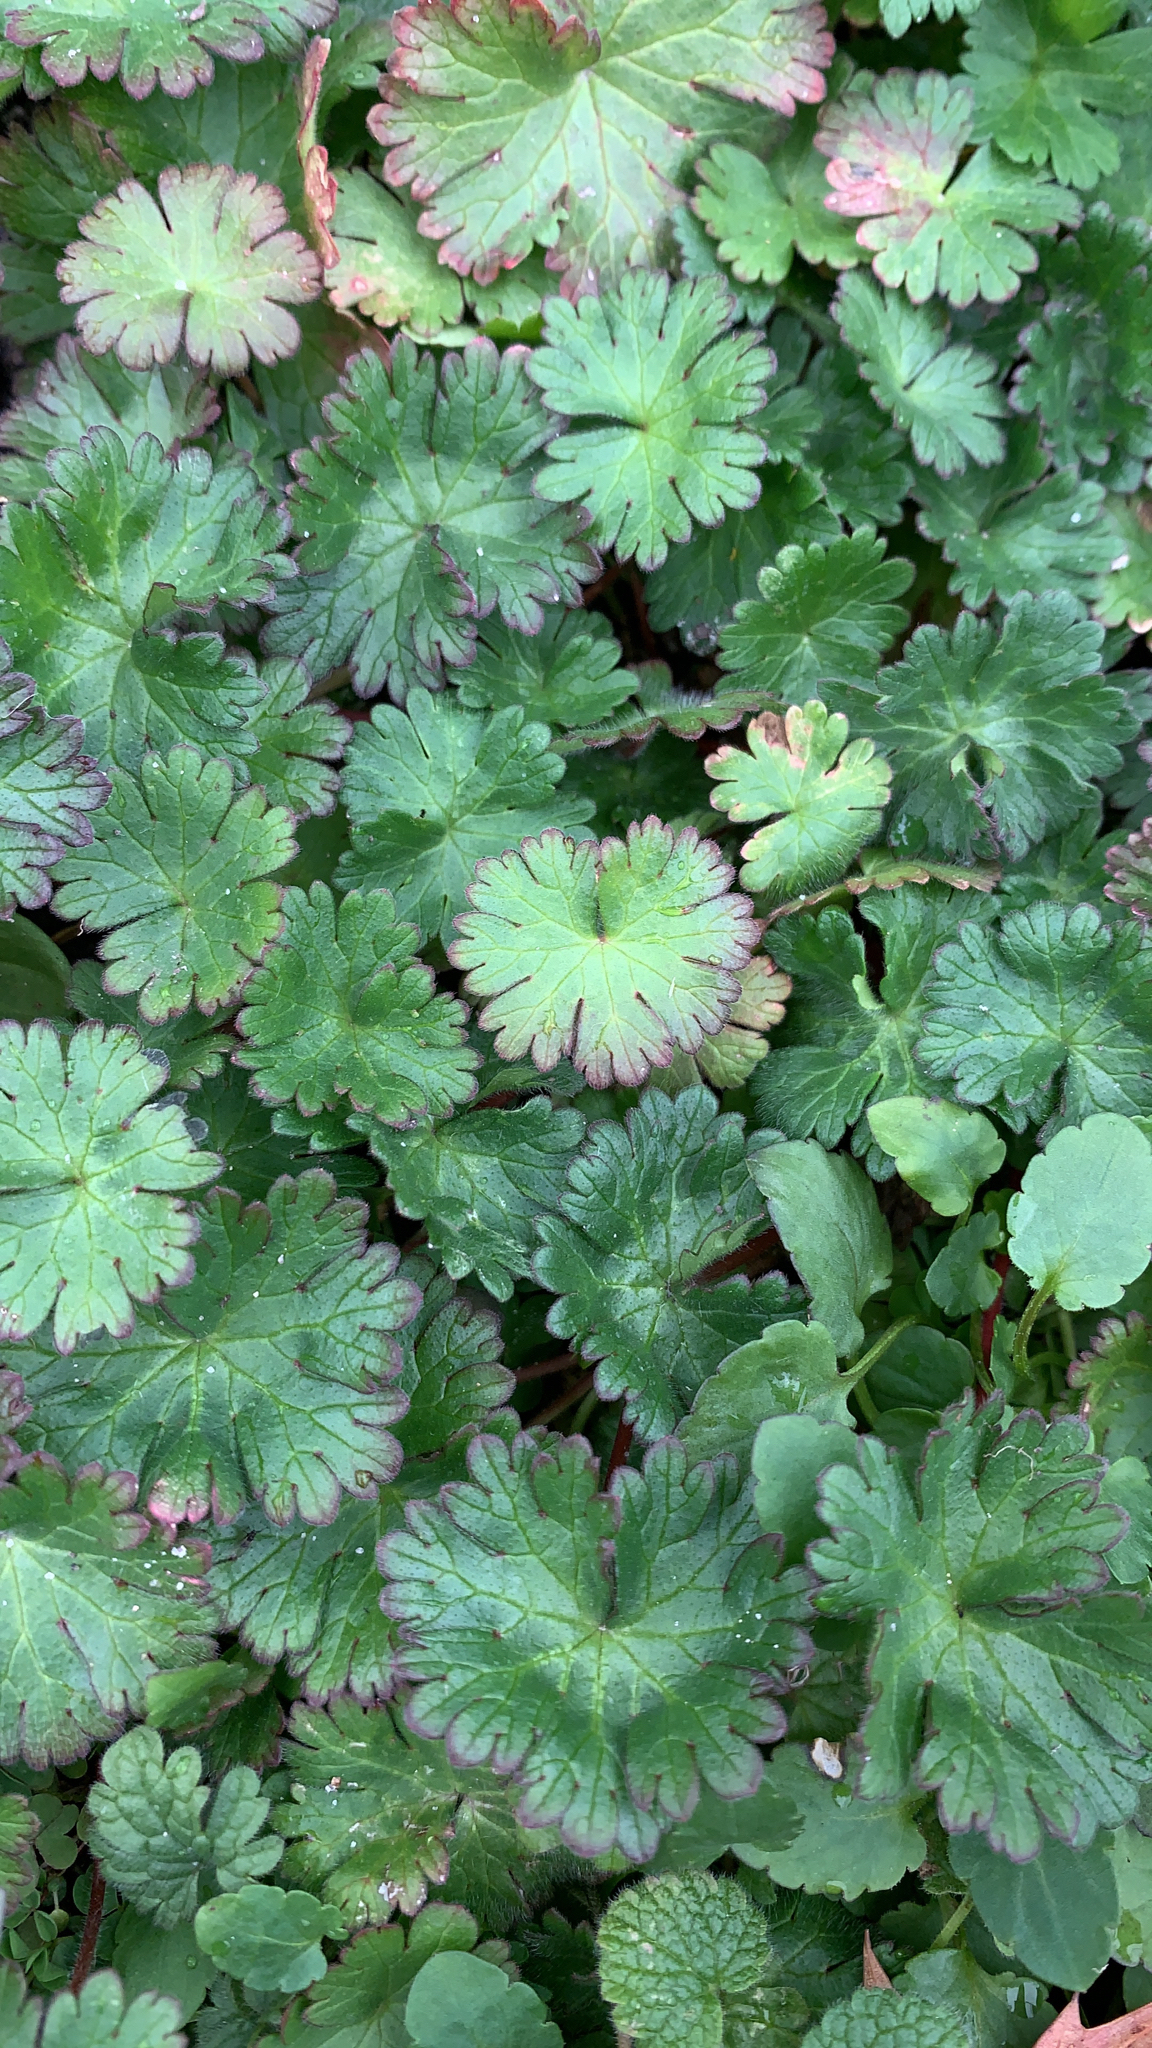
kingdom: Plantae
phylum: Tracheophyta
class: Magnoliopsida
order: Geraniales
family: Geraniaceae
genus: Geranium
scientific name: Geranium molle
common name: Dove's-foot crane's-bill
